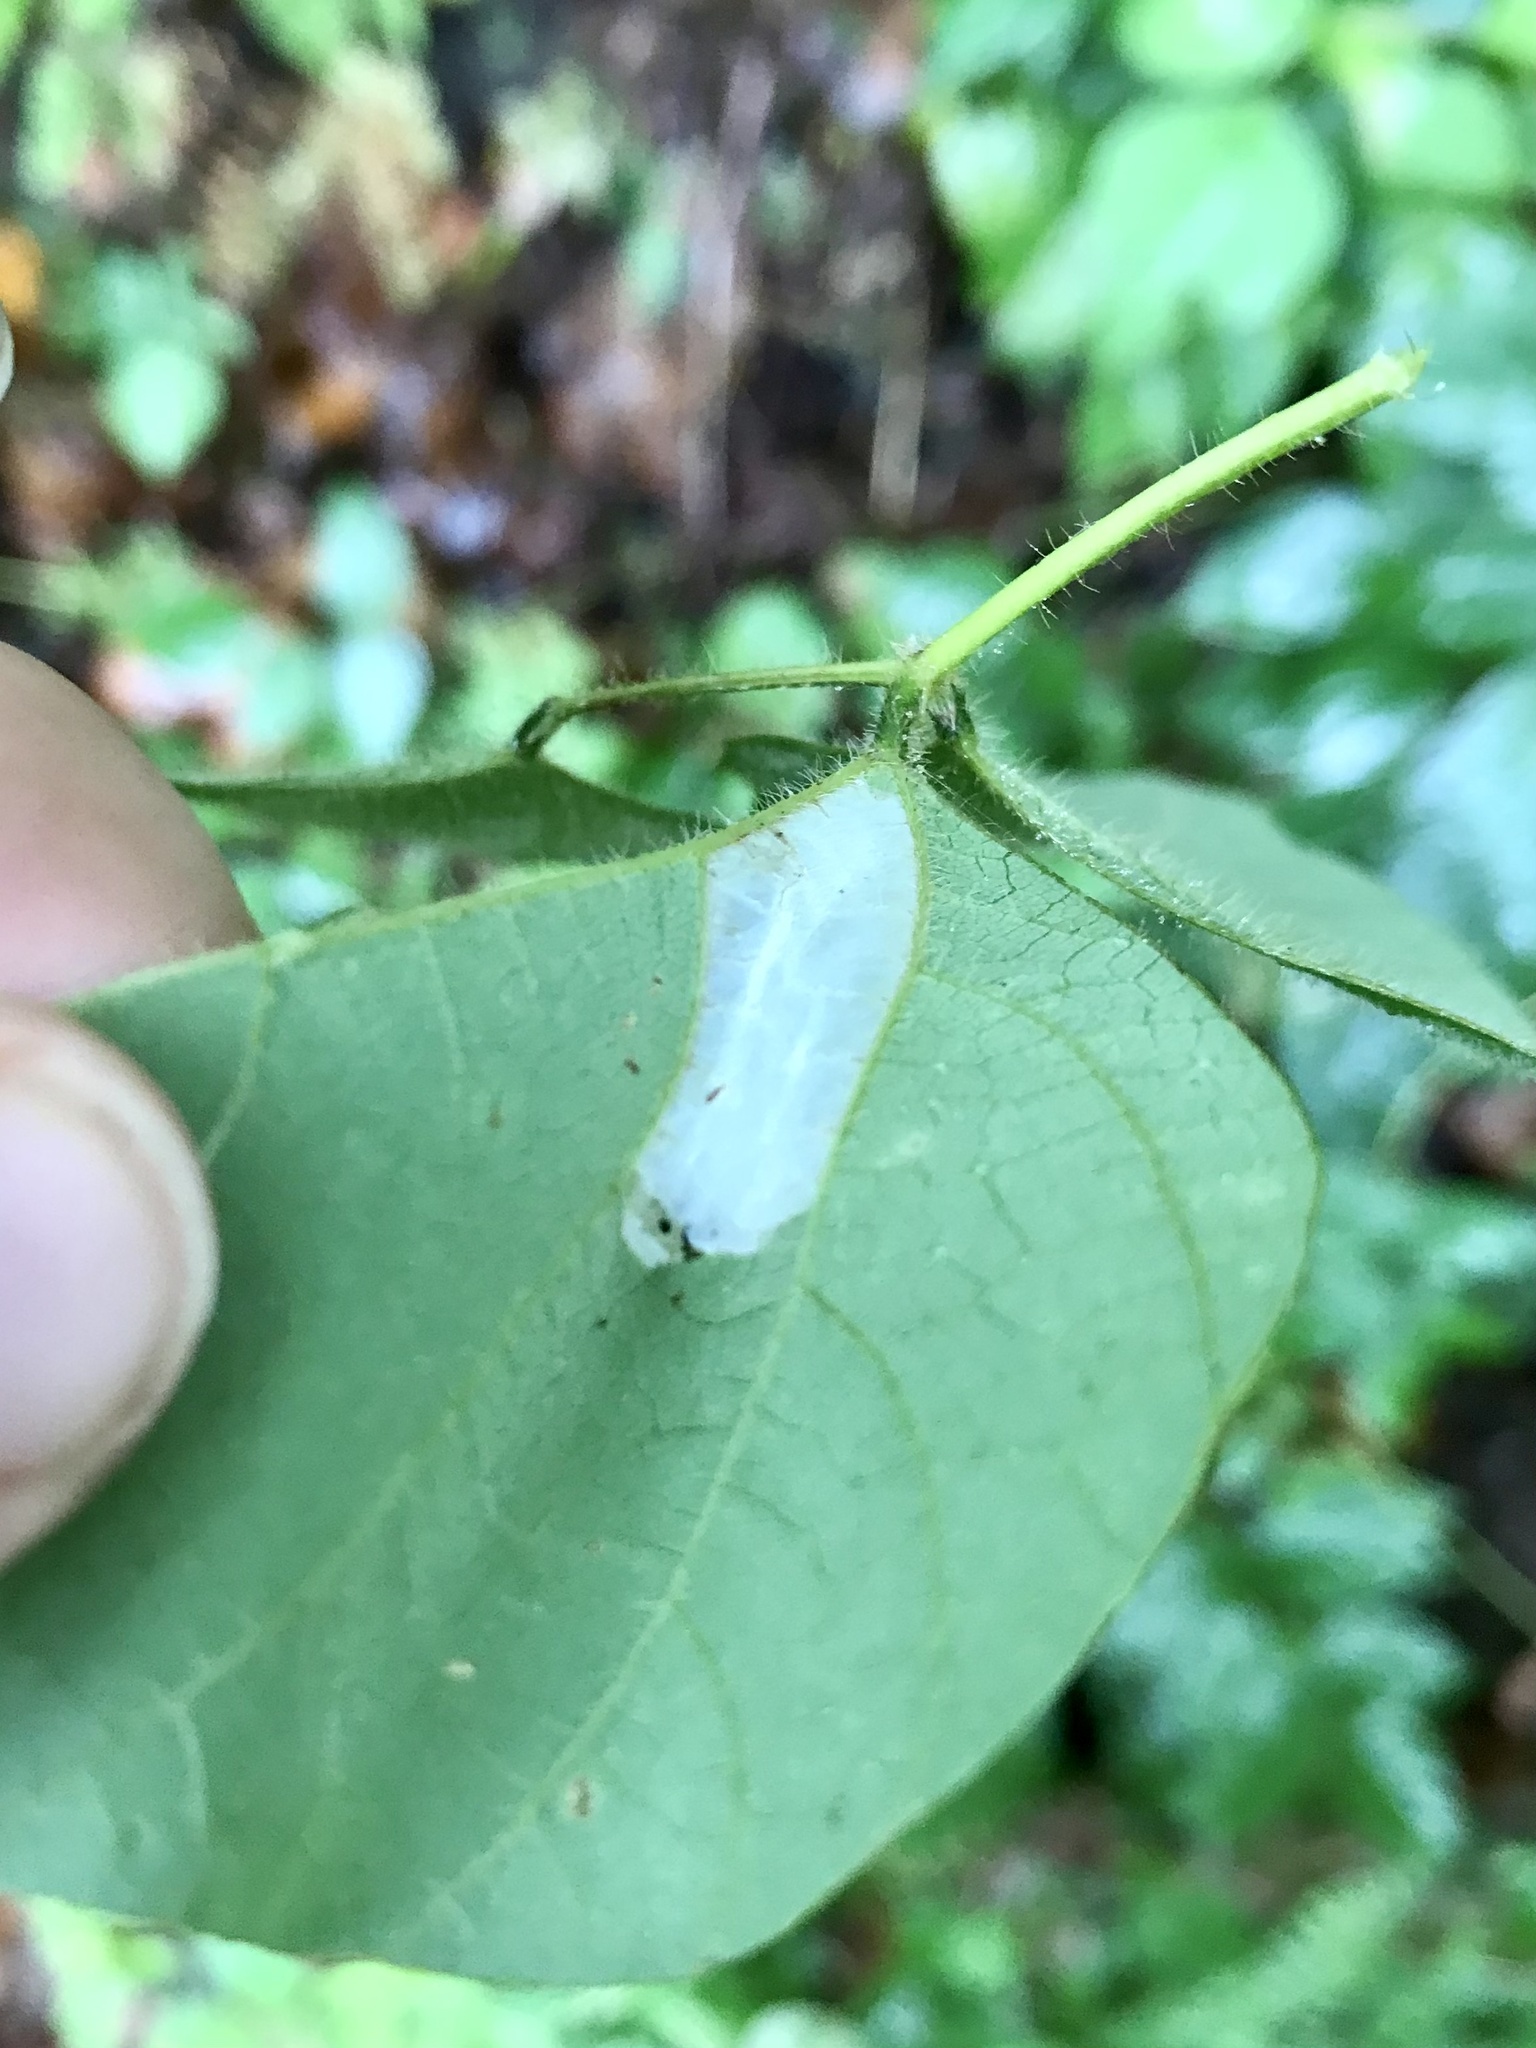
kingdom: Animalia
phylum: Arthropoda
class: Insecta
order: Lepidoptera
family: Gracillariidae
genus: Macrosaccus
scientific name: Macrosaccus morrisella
